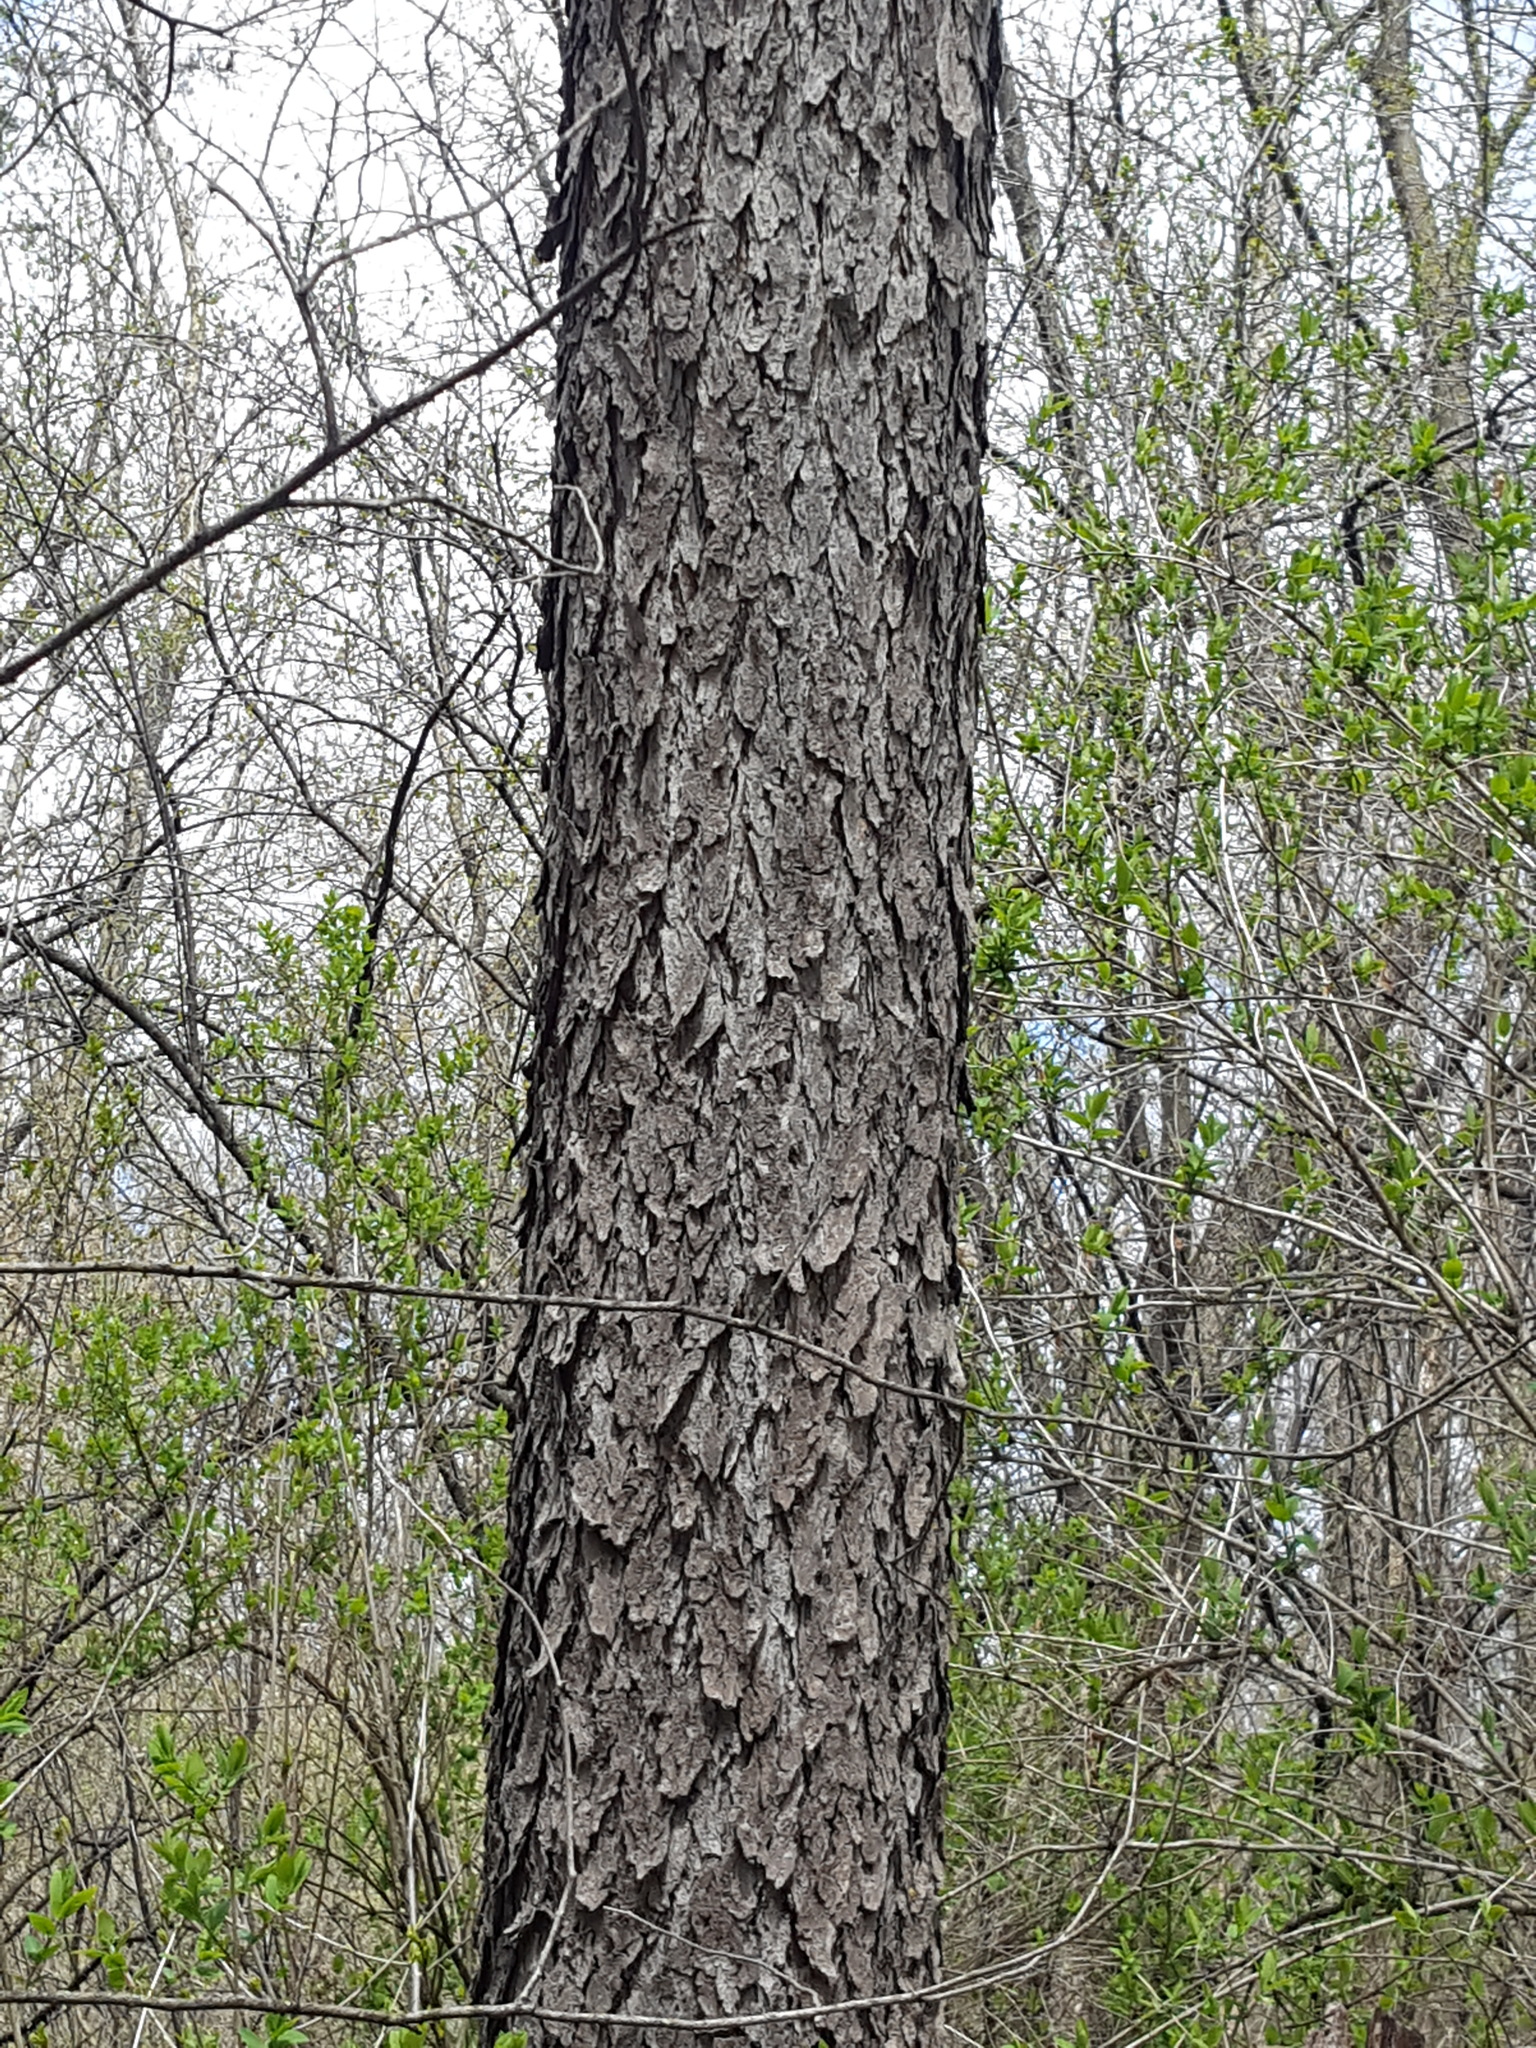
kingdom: Plantae
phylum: Tracheophyta
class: Magnoliopsida
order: Rosales
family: Rosaceae
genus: Prunus
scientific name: Prunus serotina
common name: Black cherry
